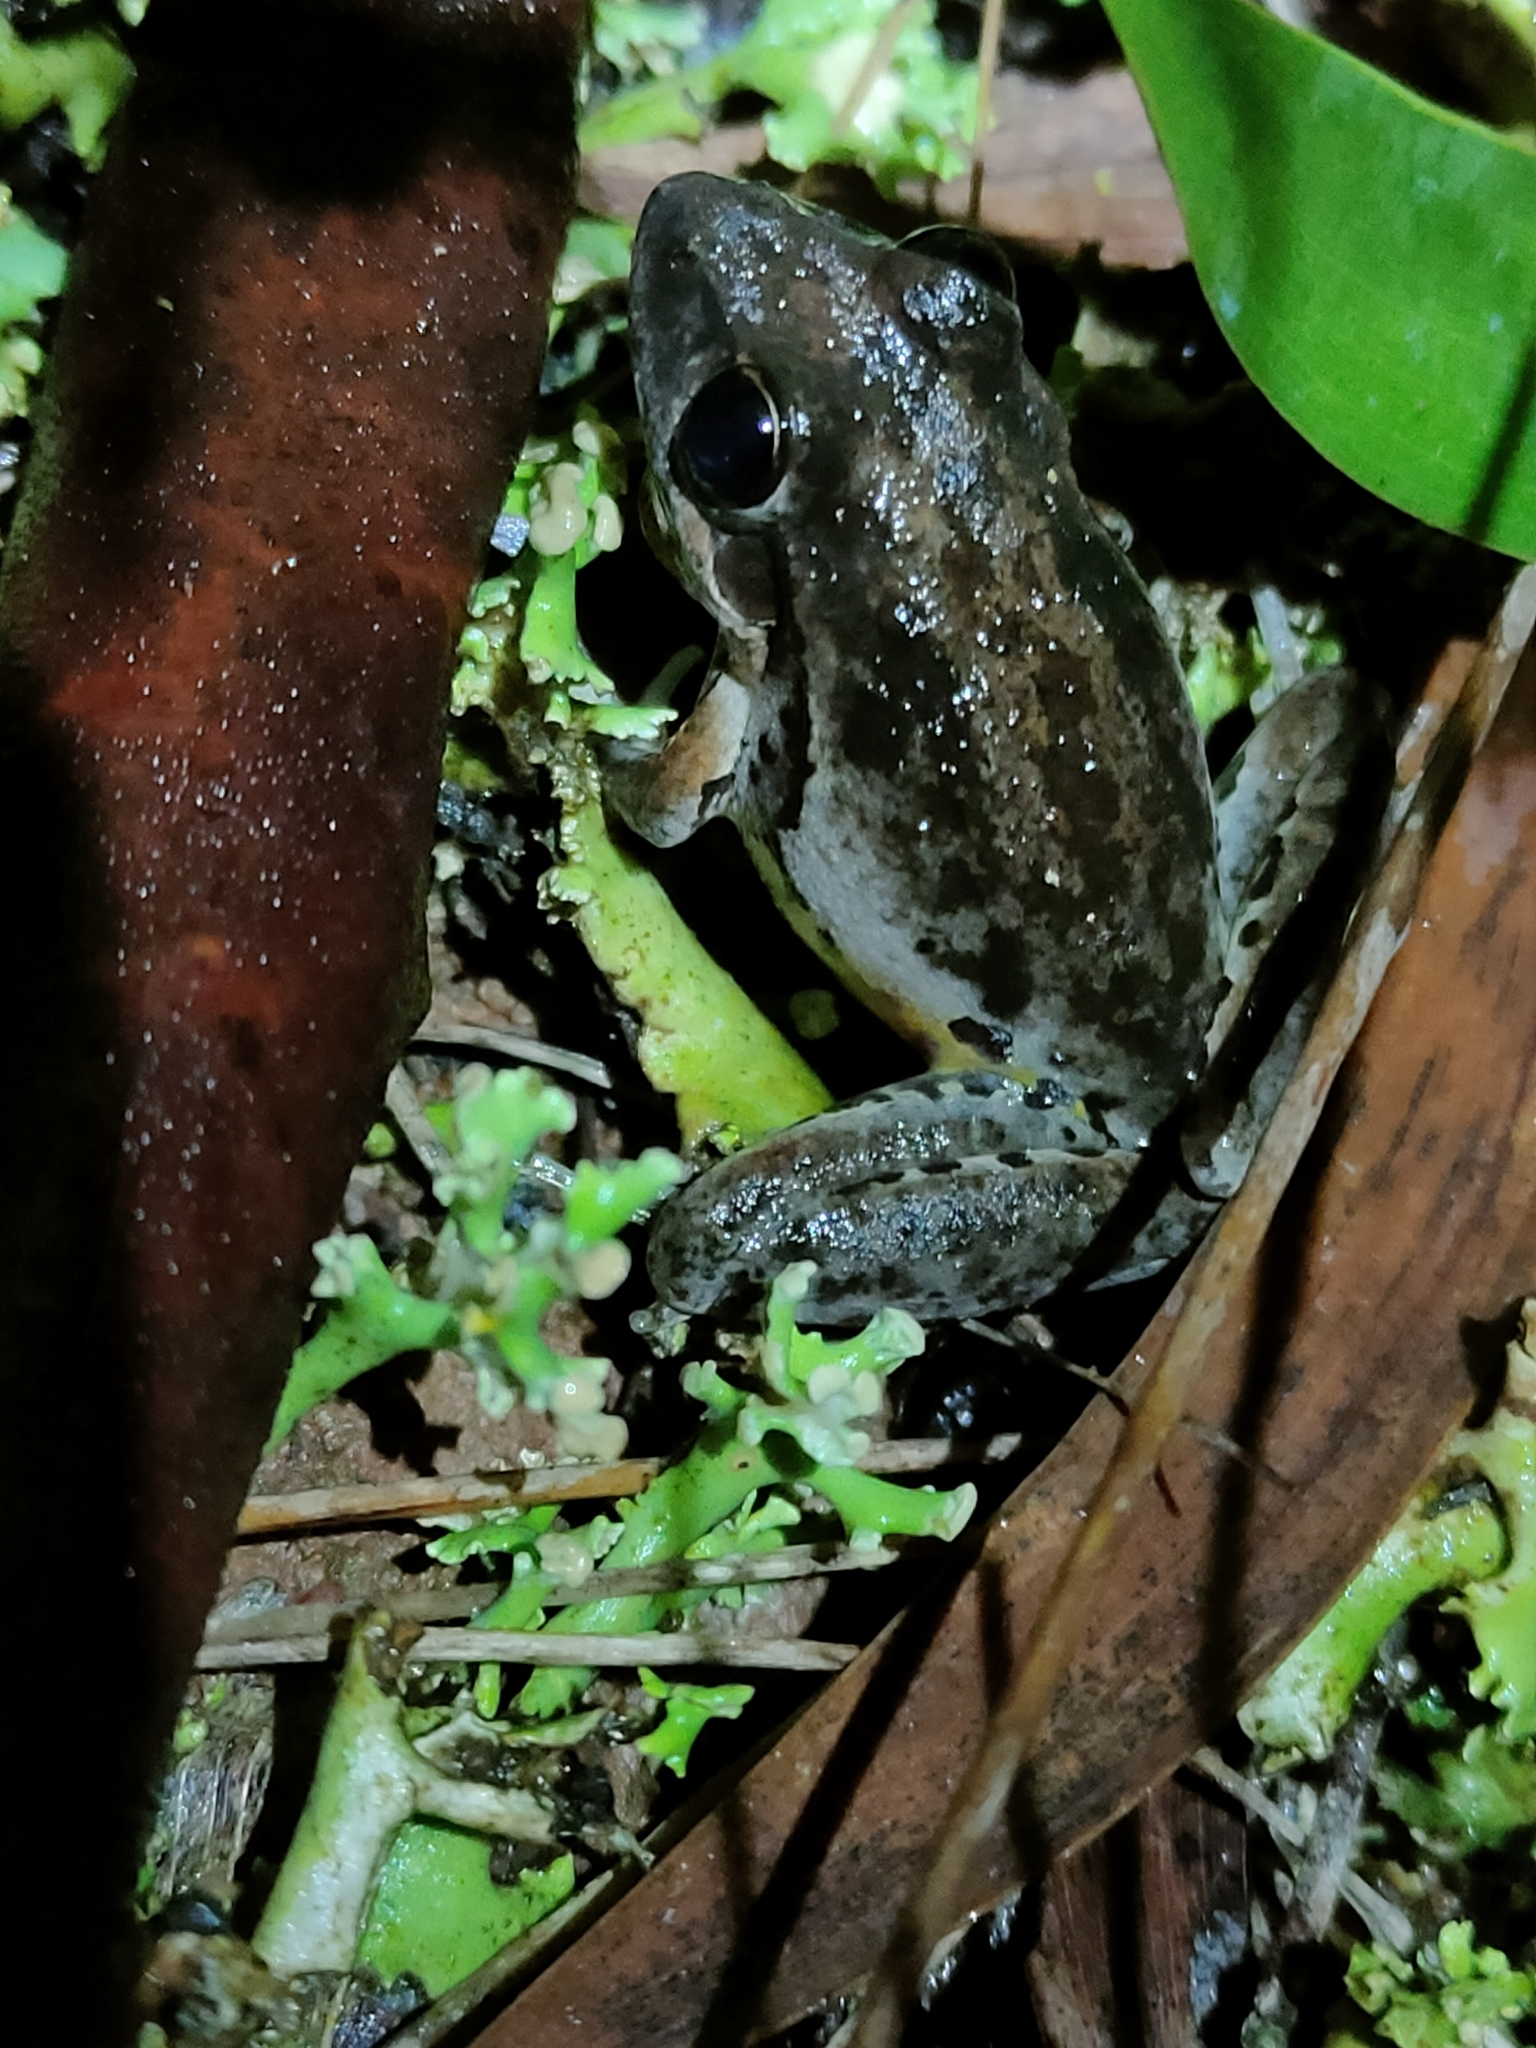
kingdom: Animalia
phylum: Chordata
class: Amphibia
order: Anura
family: Pelodryadidae
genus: Litoria
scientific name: Litoria latopalmata
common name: Broad-palmed rocket frog
